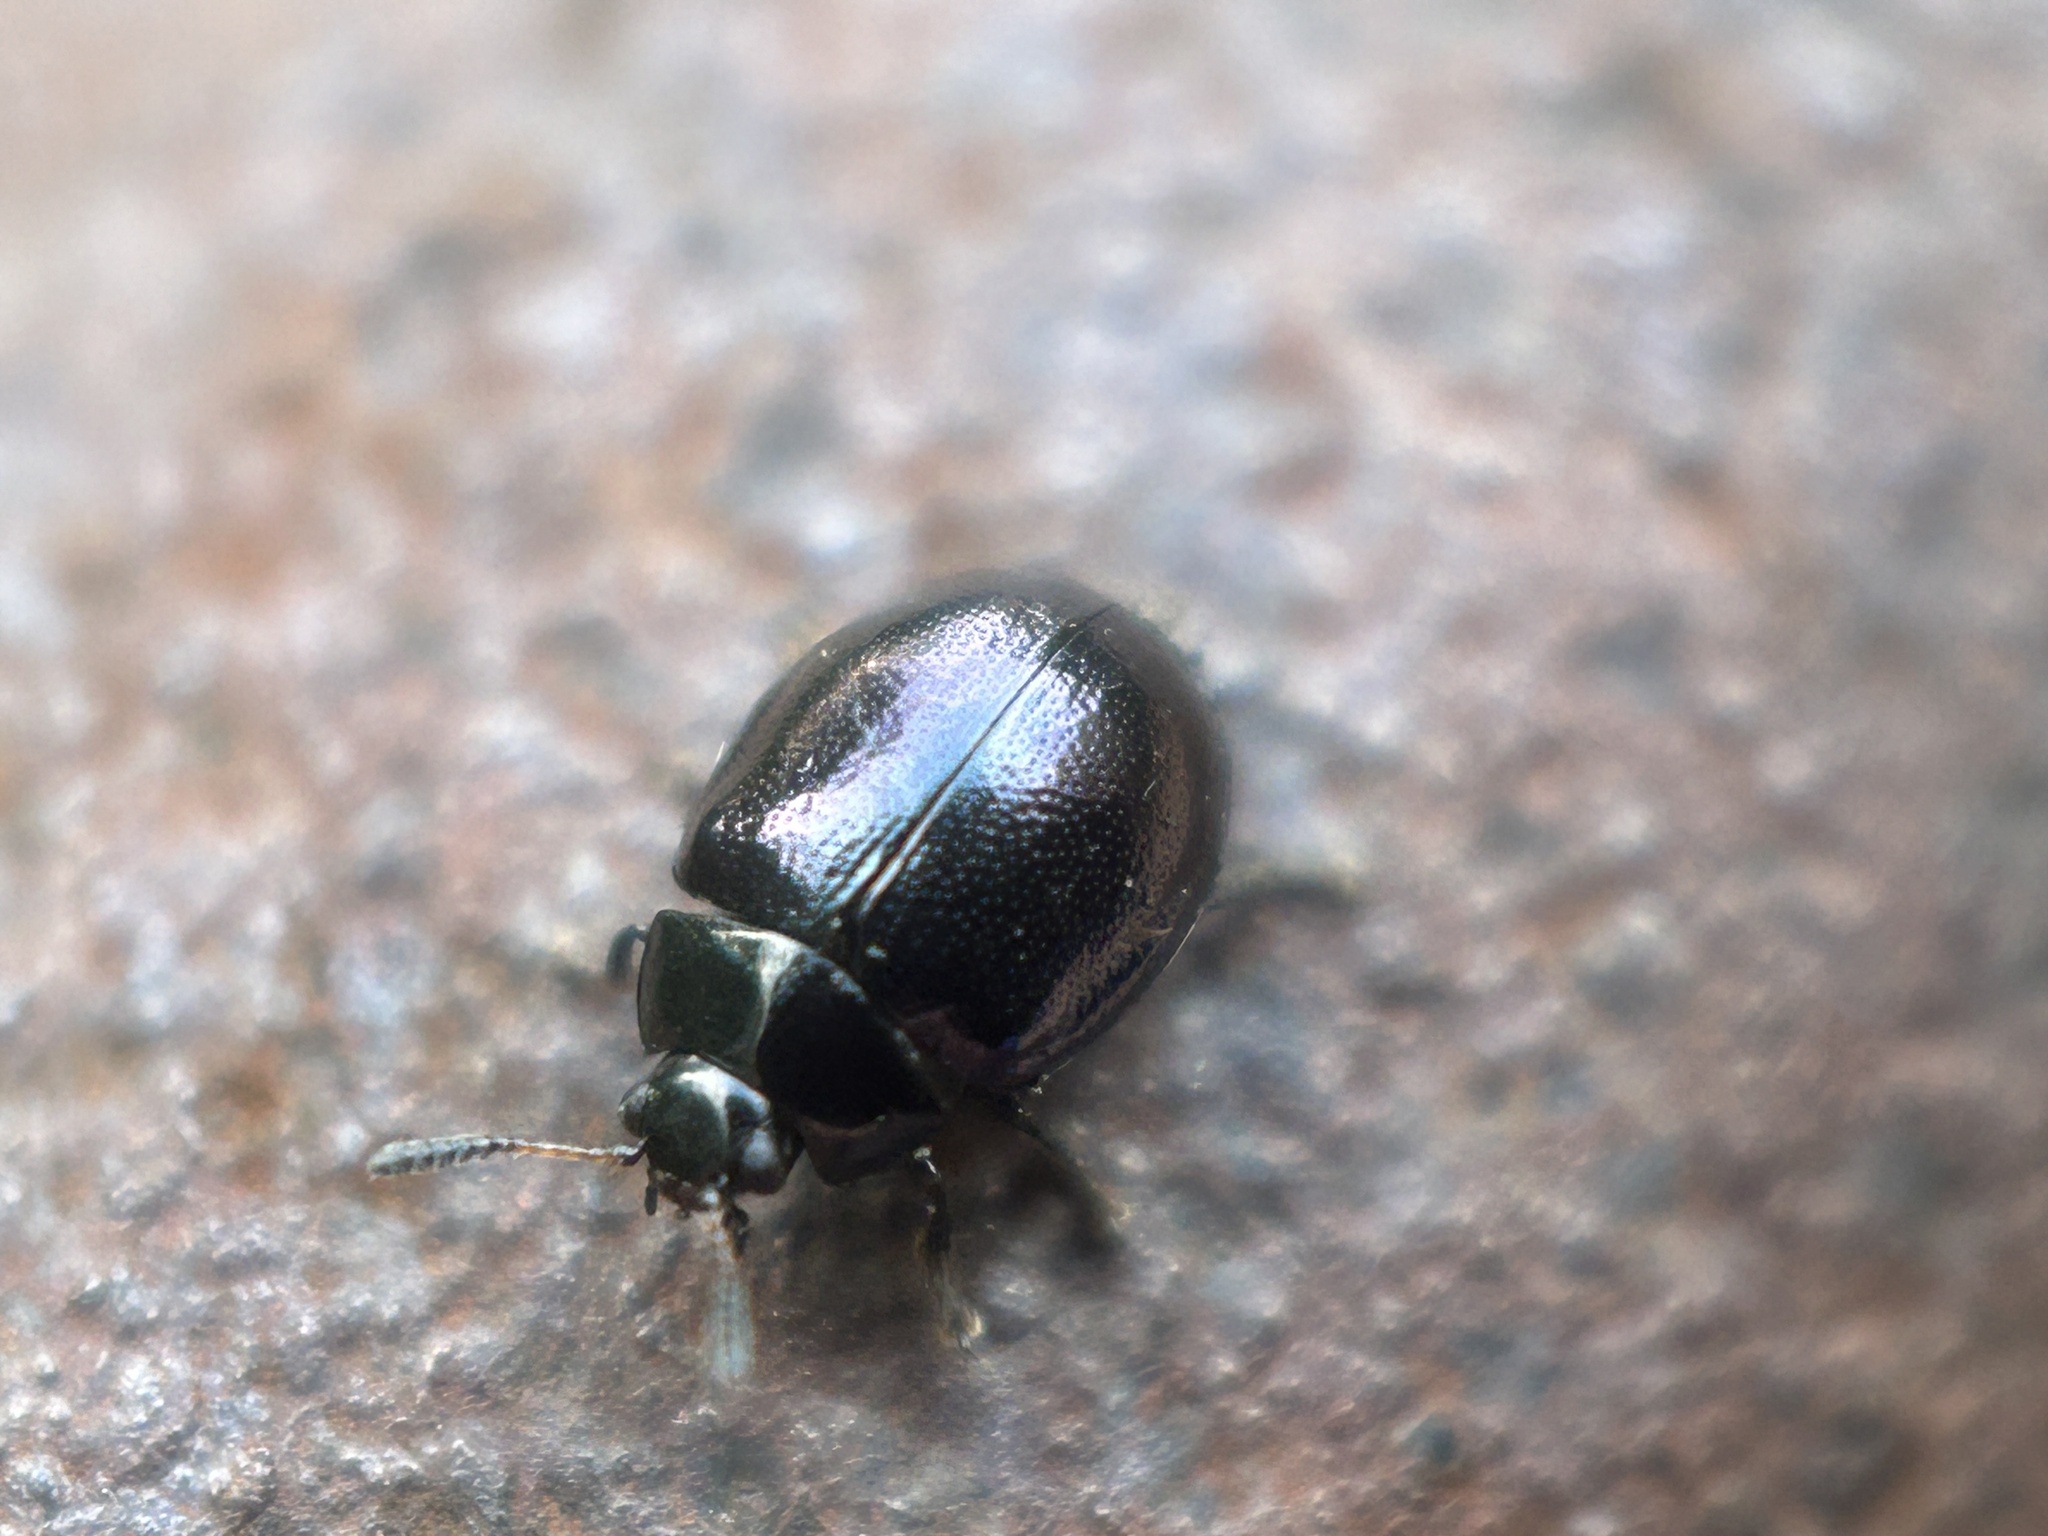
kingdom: Animalia
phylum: Arthropoda
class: Insecta
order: Coleoptera
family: Chrysomelidae
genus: Plagiodera
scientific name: Plagiodera versicolora
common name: Imported willow leaf beetle
